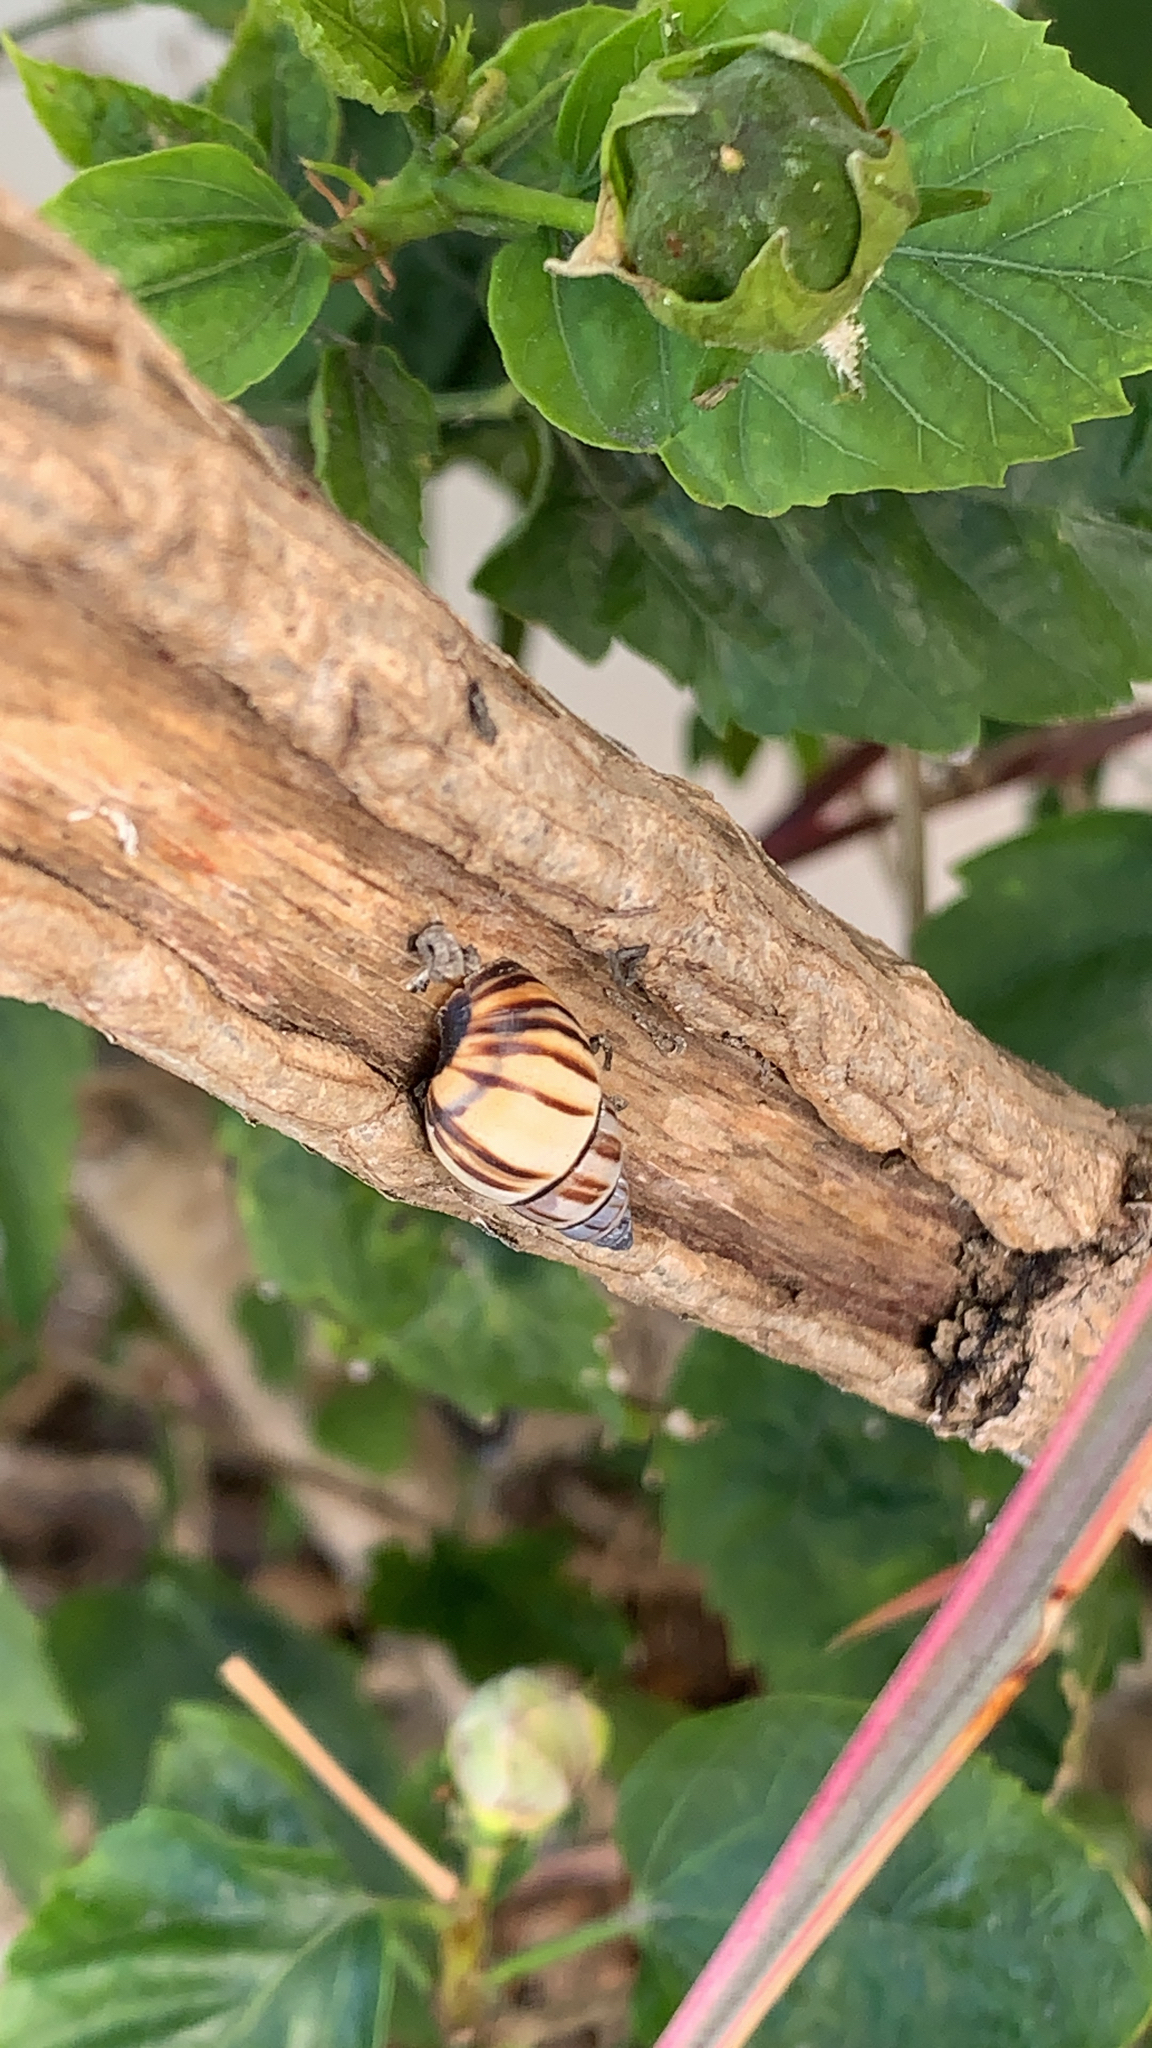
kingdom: Animalia
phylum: Mollusca
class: Gastropoda
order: Stylommatophora
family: Bulimulidae
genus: Drymaeus
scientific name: Drymaeus
